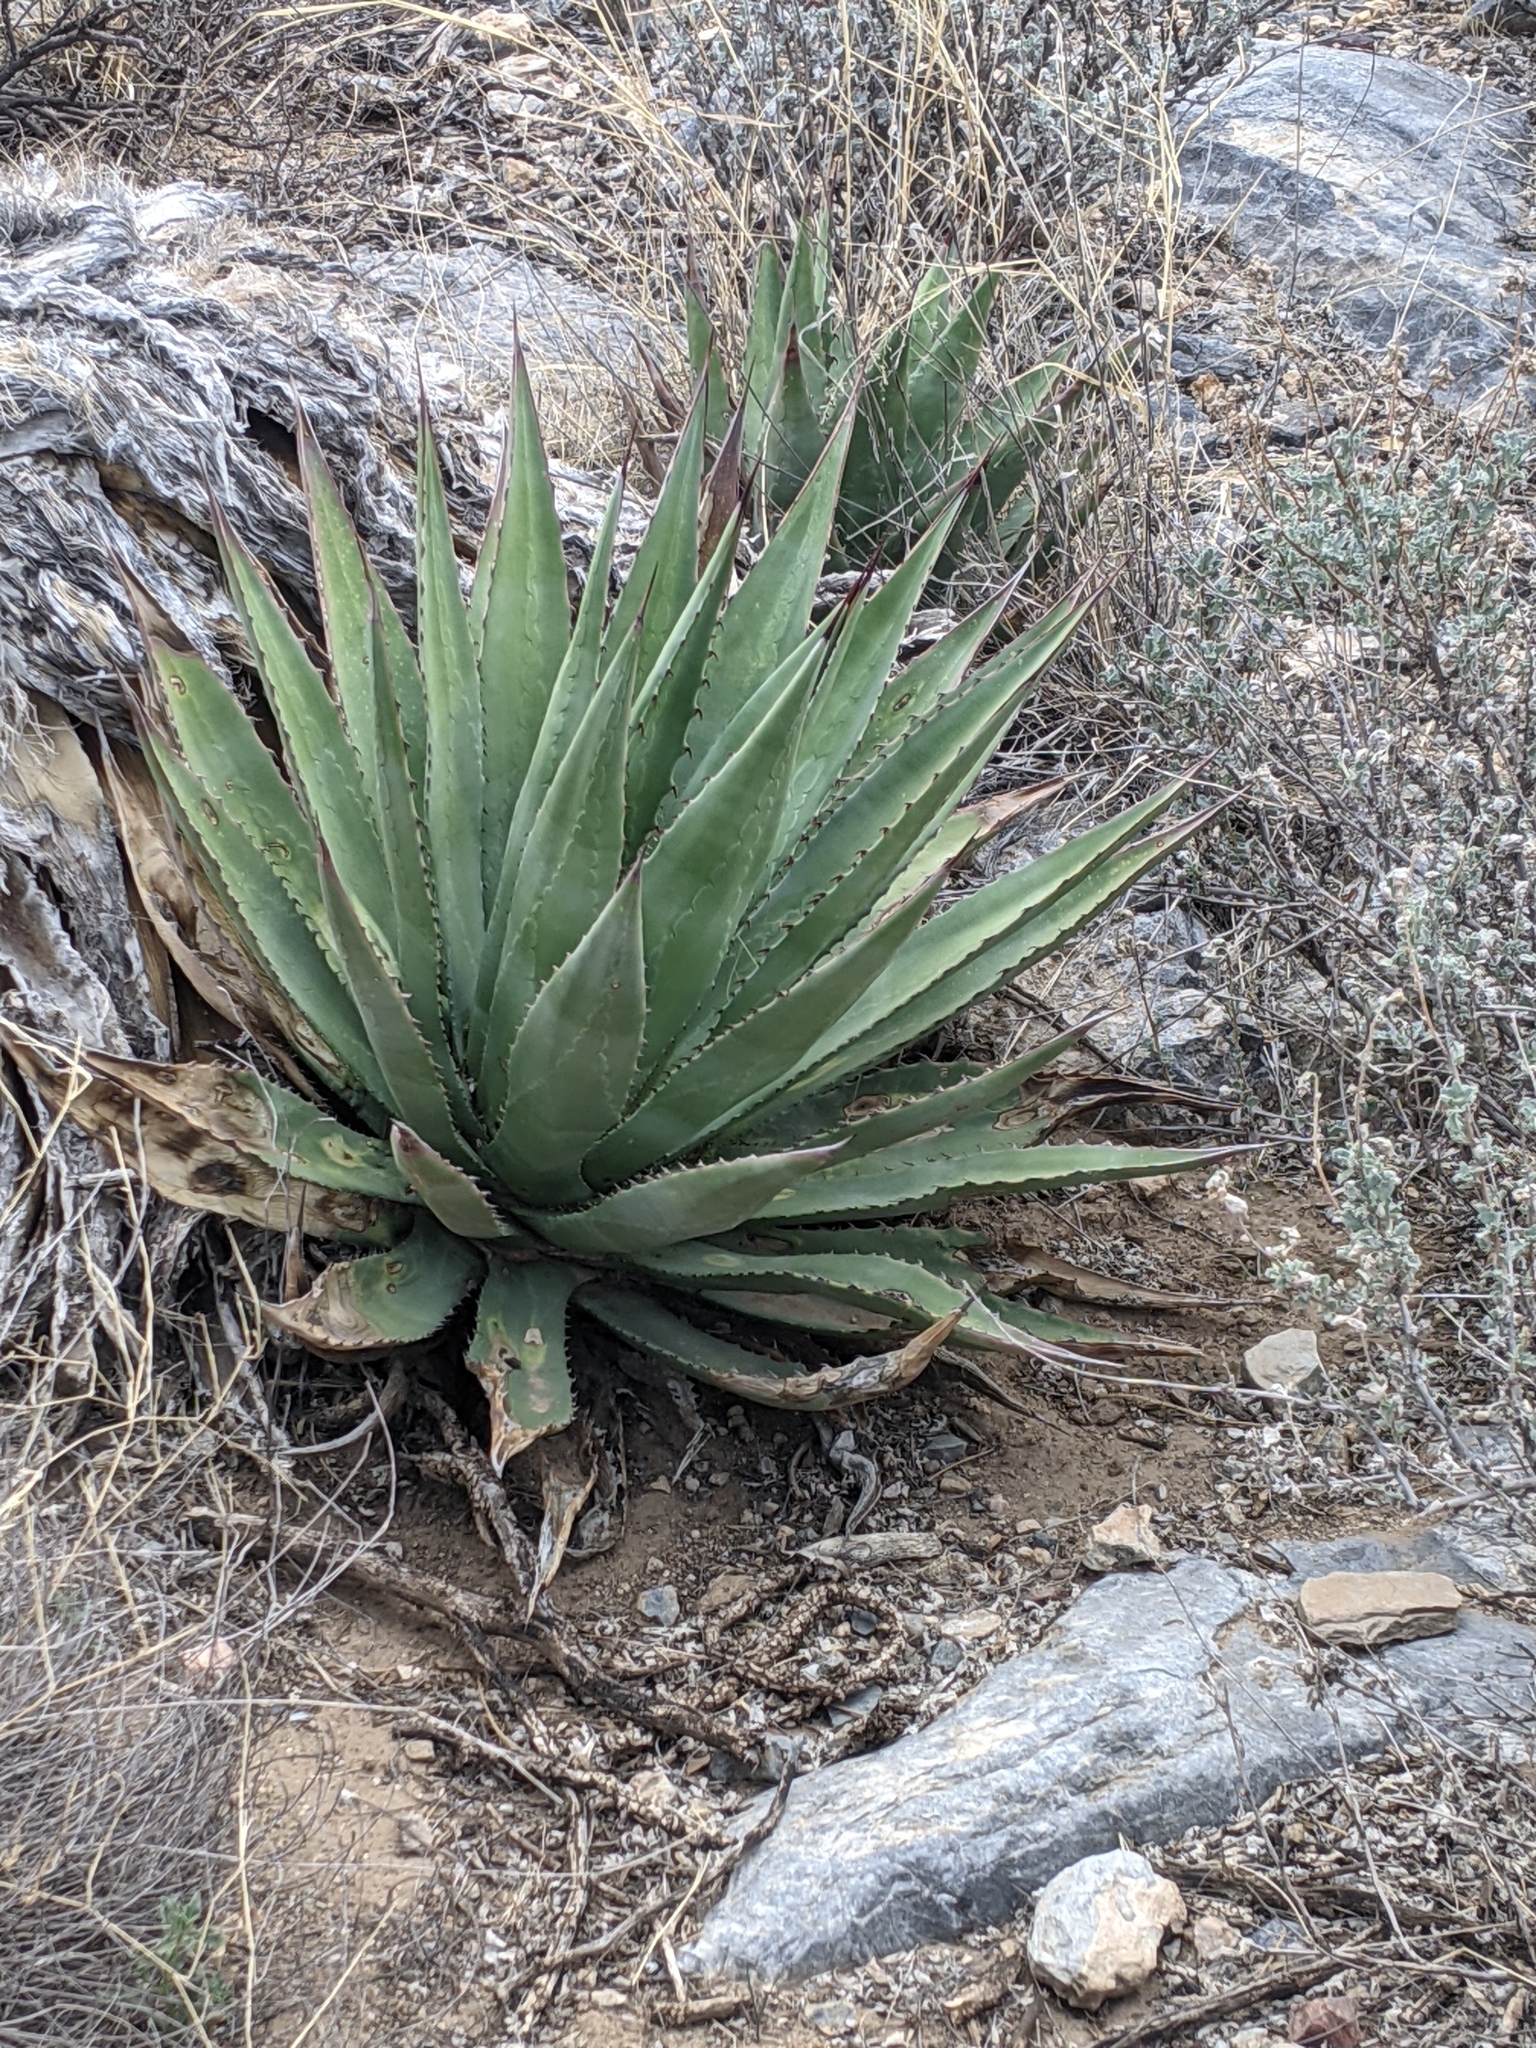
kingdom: Plantae
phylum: Tracheophyta
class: Liliopsida
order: Asparagales
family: Asparagaceae
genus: Agave
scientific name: Agave palmeri
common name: Palmer agave
